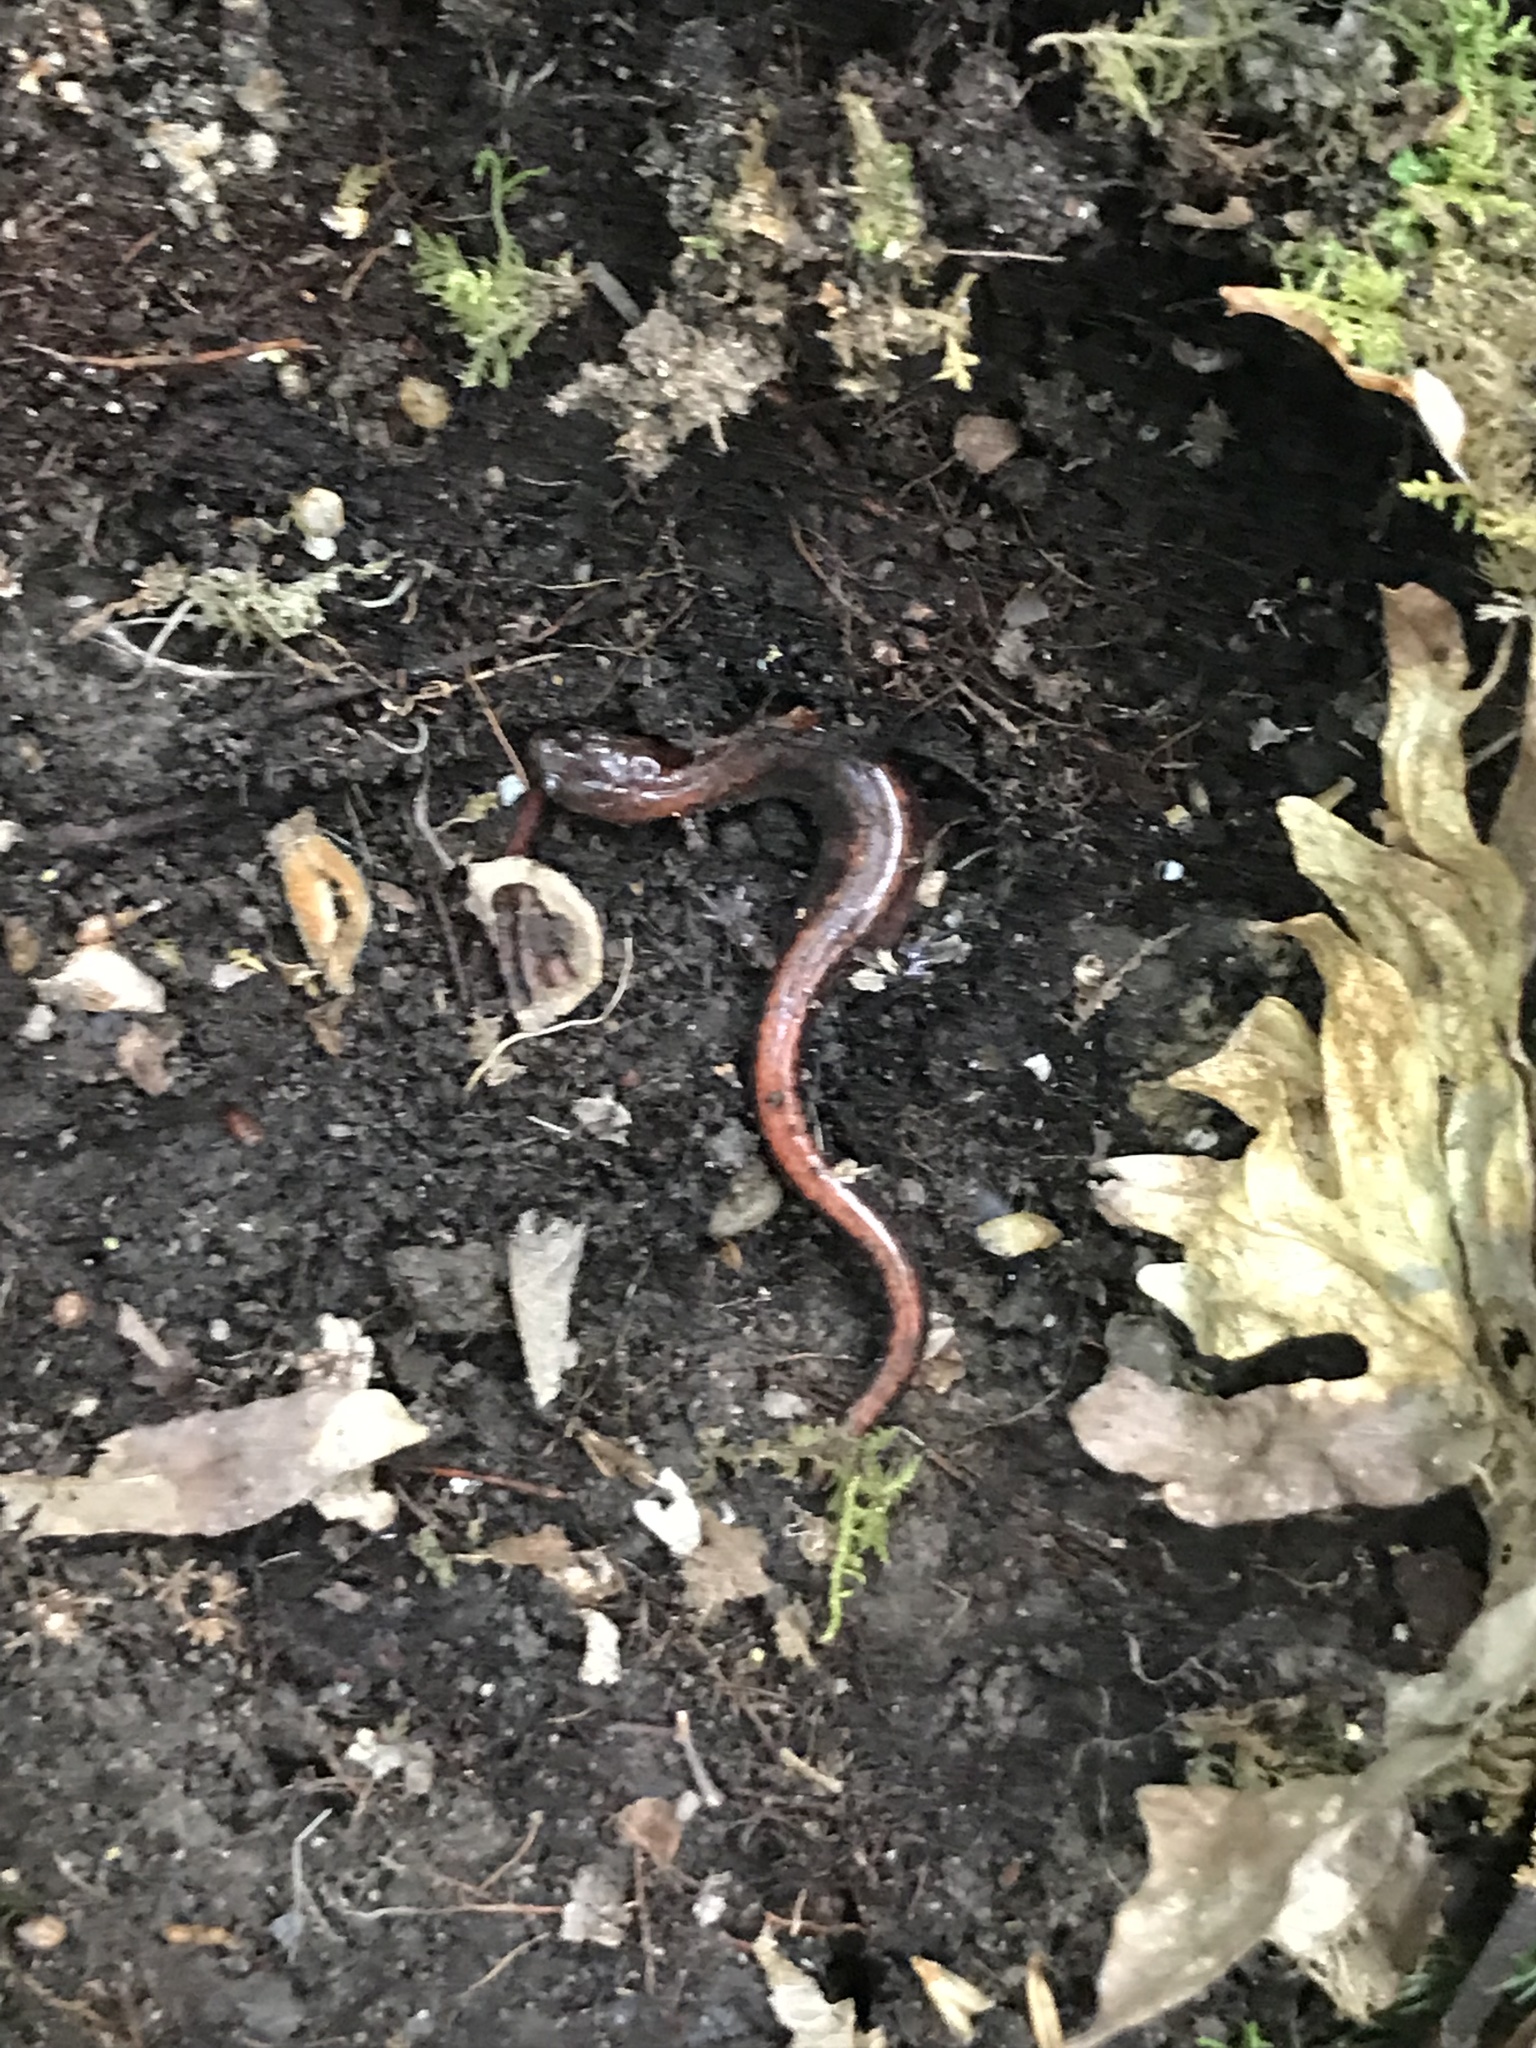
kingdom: Animalia
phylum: Chordata
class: Amphibia
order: Caudata
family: Plethodontidae
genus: Plethodon
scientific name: Plethodon cinereus
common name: Redback salamander
